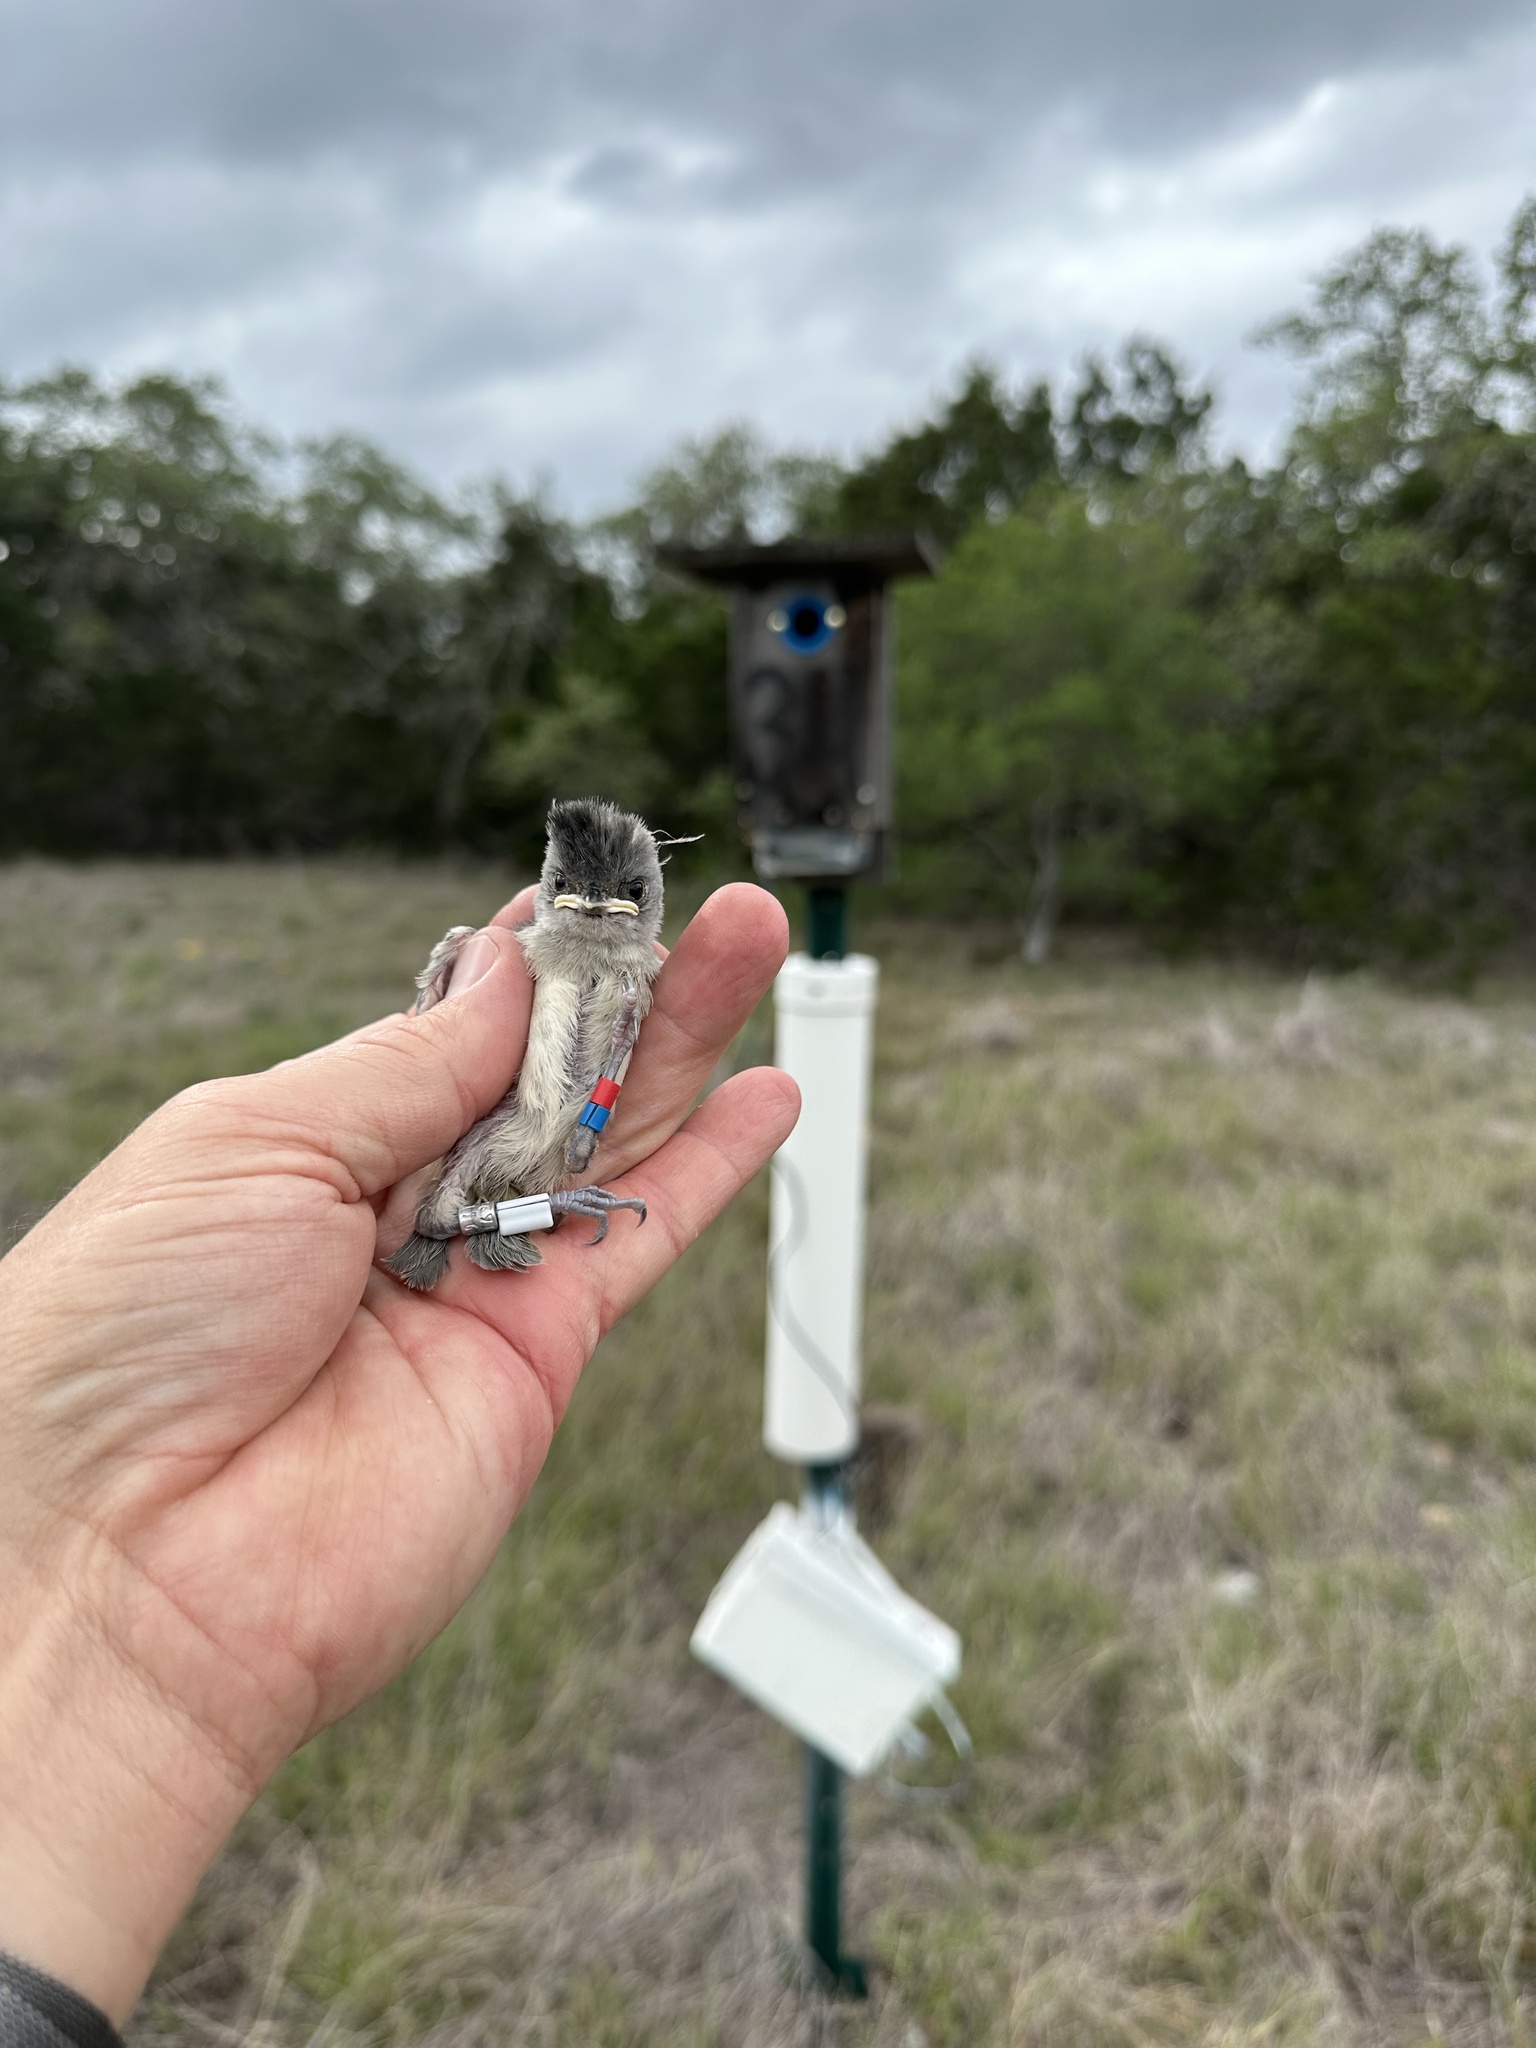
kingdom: Animalia
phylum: Chordata
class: Aves
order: Passeriformes
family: Paridae
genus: Baeolophus
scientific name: Baeolophus atricristatus
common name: Black-crested titmouse
